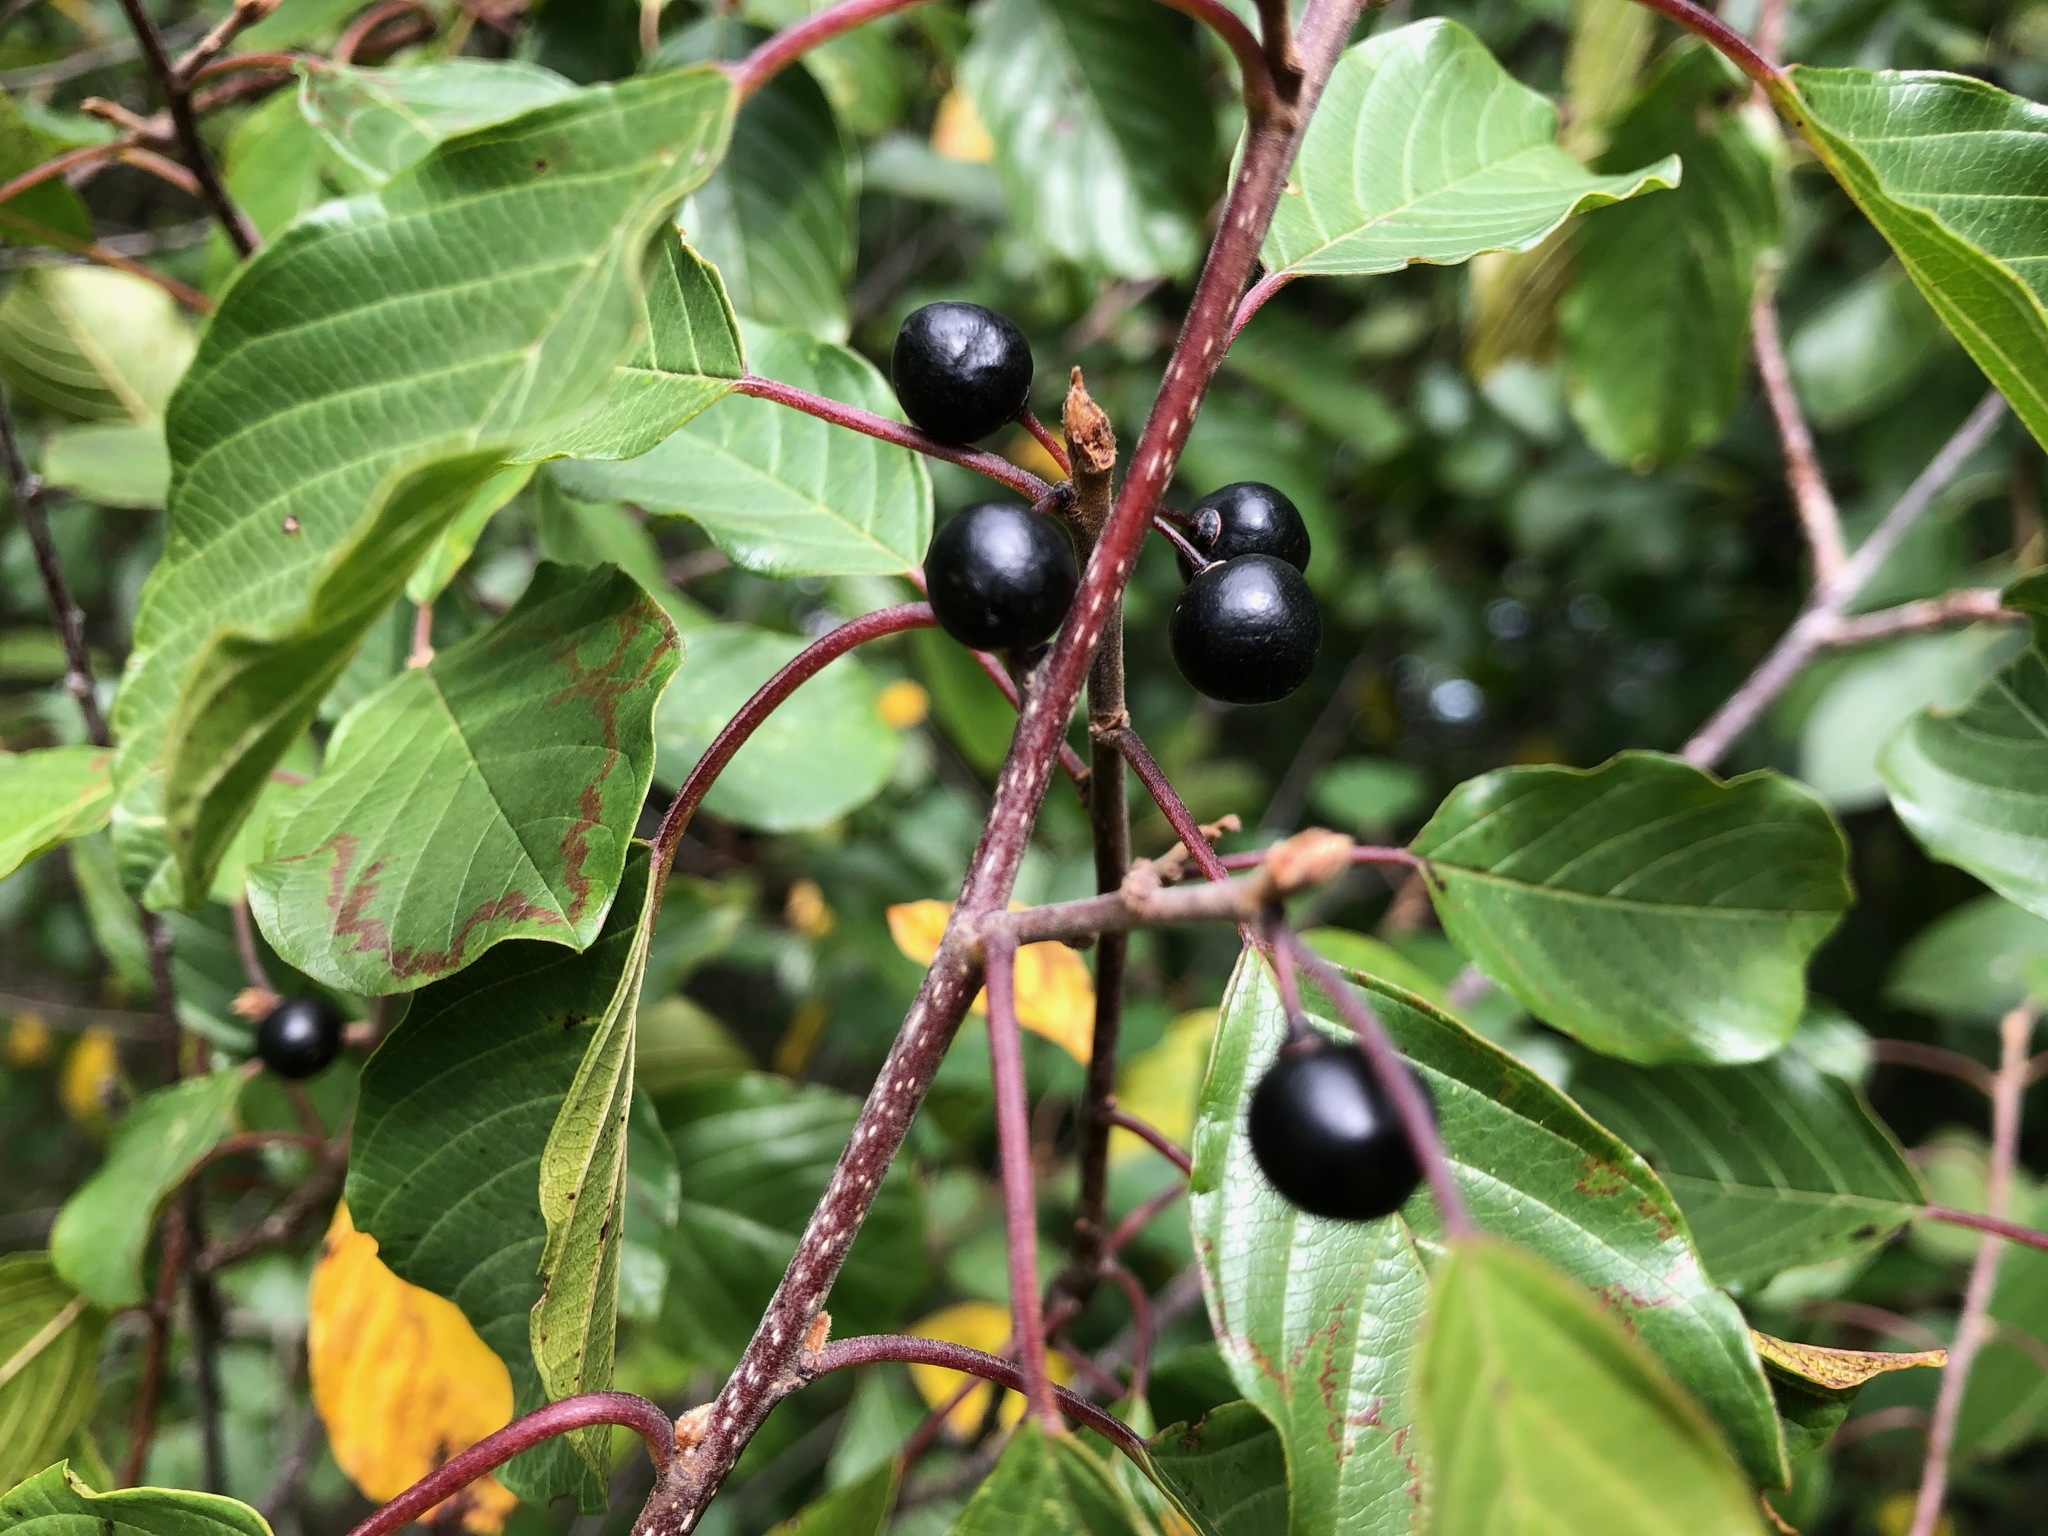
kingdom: Plantae
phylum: Tracheophyta
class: Magnoliopsida
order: Rosales
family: Rhamnaceae
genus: Frangula
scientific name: Frangula alnus
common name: Alder buckthorn
